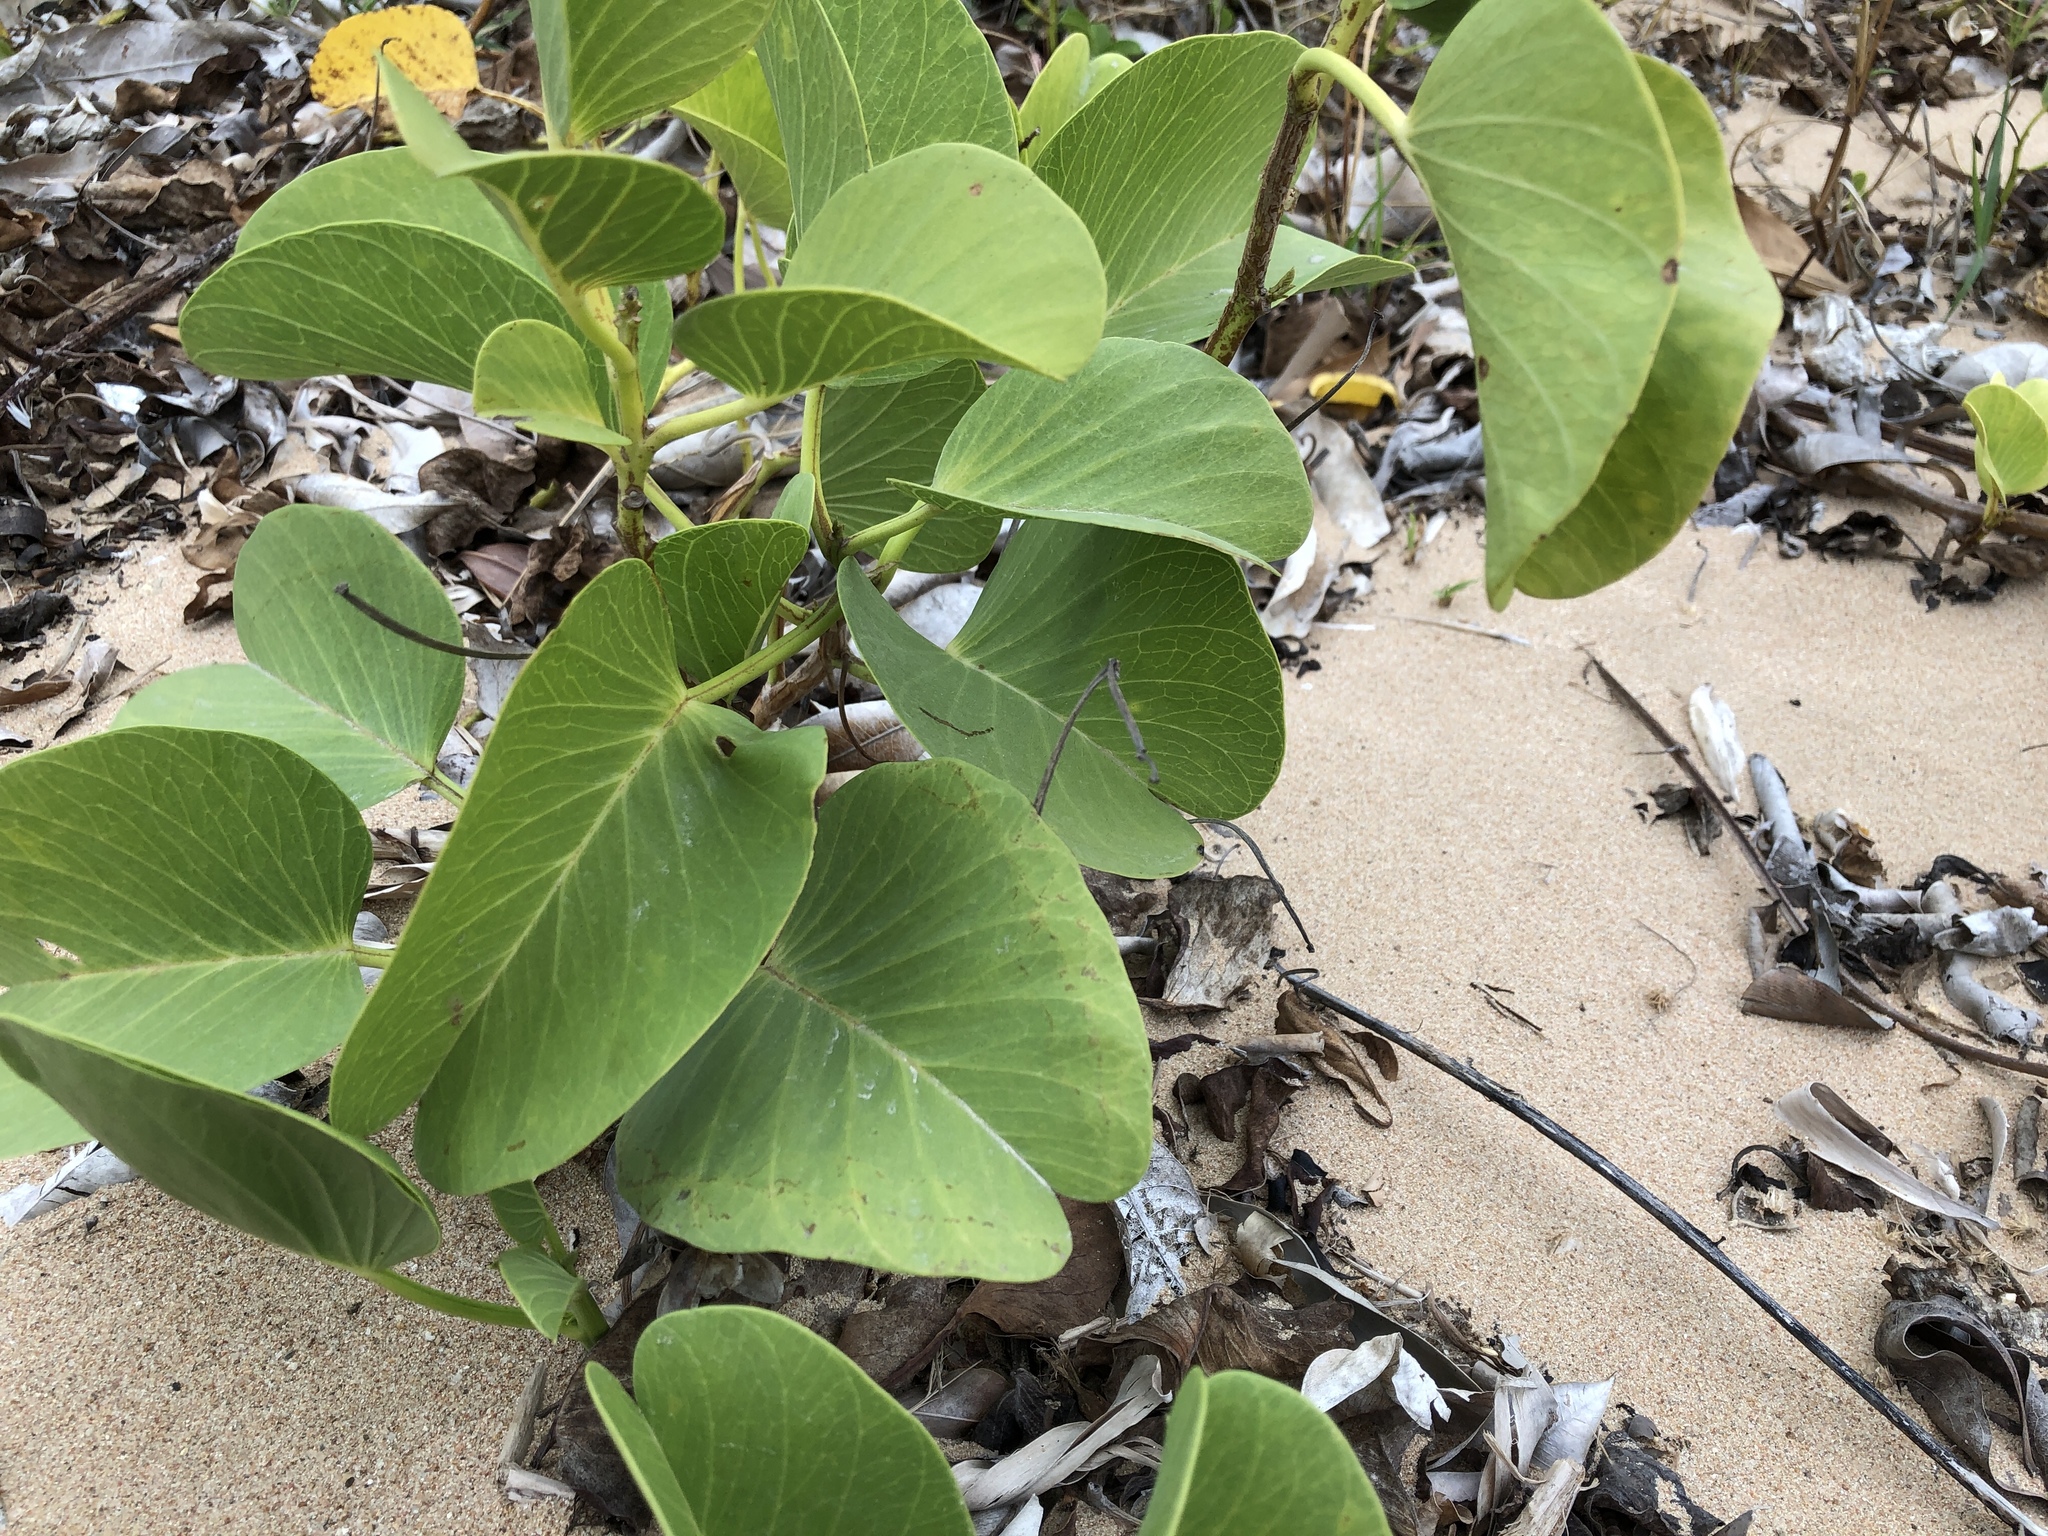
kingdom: Plantae
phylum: Tracheophyta
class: Magnoliopsida
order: Solanales
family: Convolvulaceae
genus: Ipomoea
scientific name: Ipomoea pes-caprae
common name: Beach morning glory
